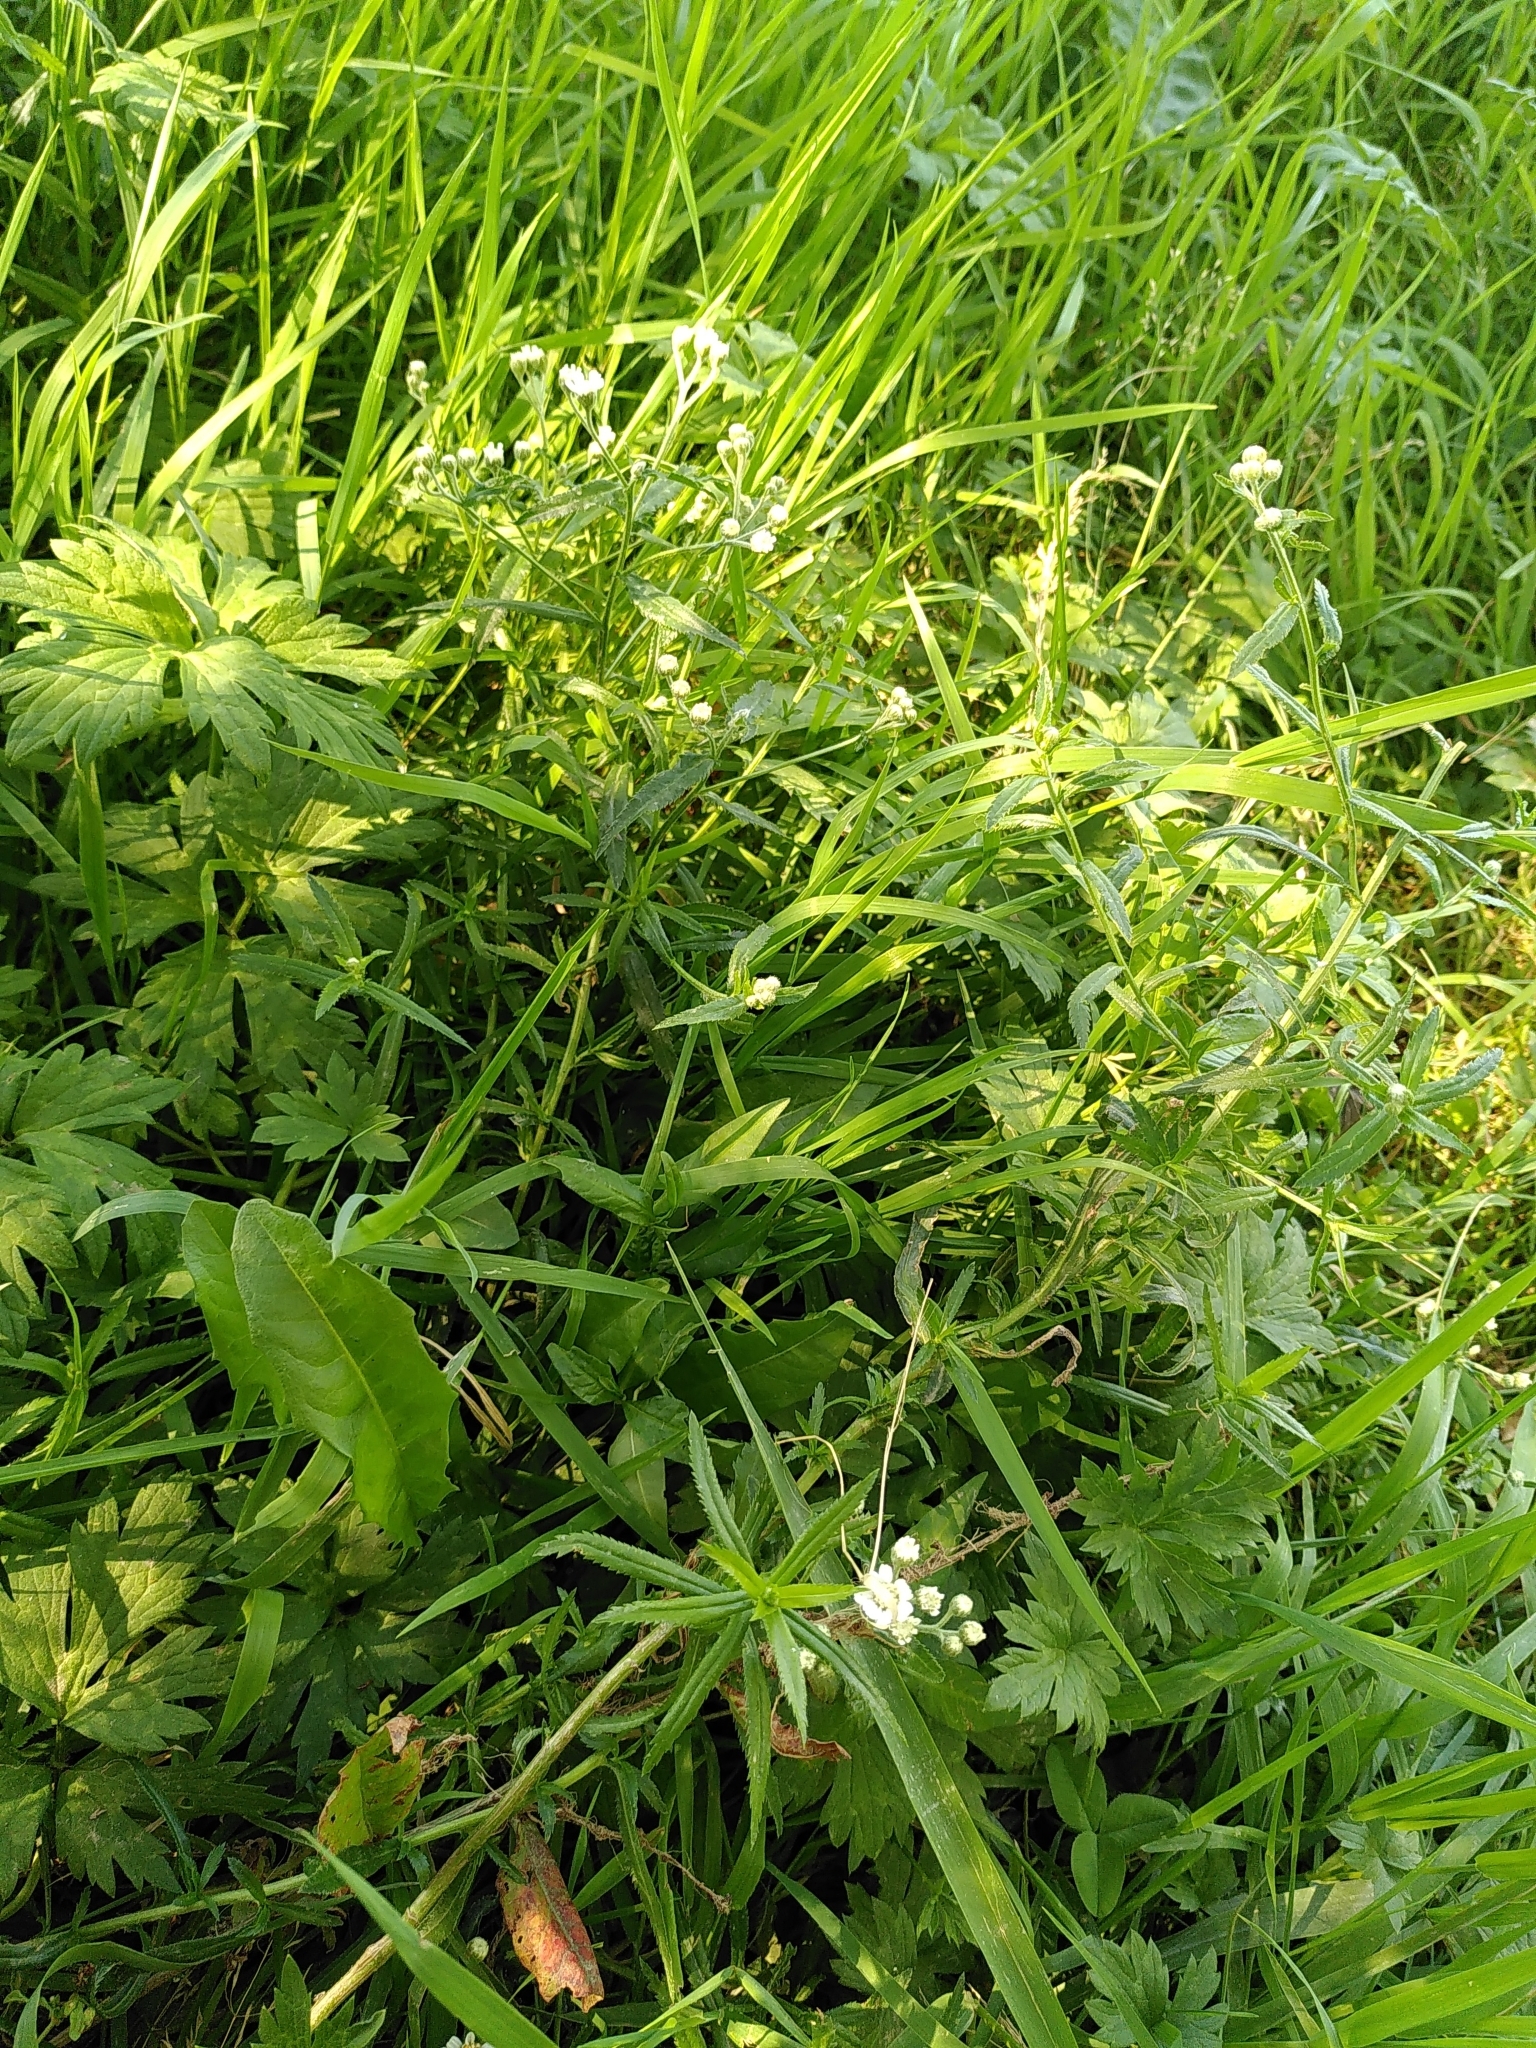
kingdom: Plantae
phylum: Tracheophyta
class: Magnoliopsida
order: Asterales
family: Asteraceae
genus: Achillea
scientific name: Achillea ptarmica
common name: Sneezeweed
